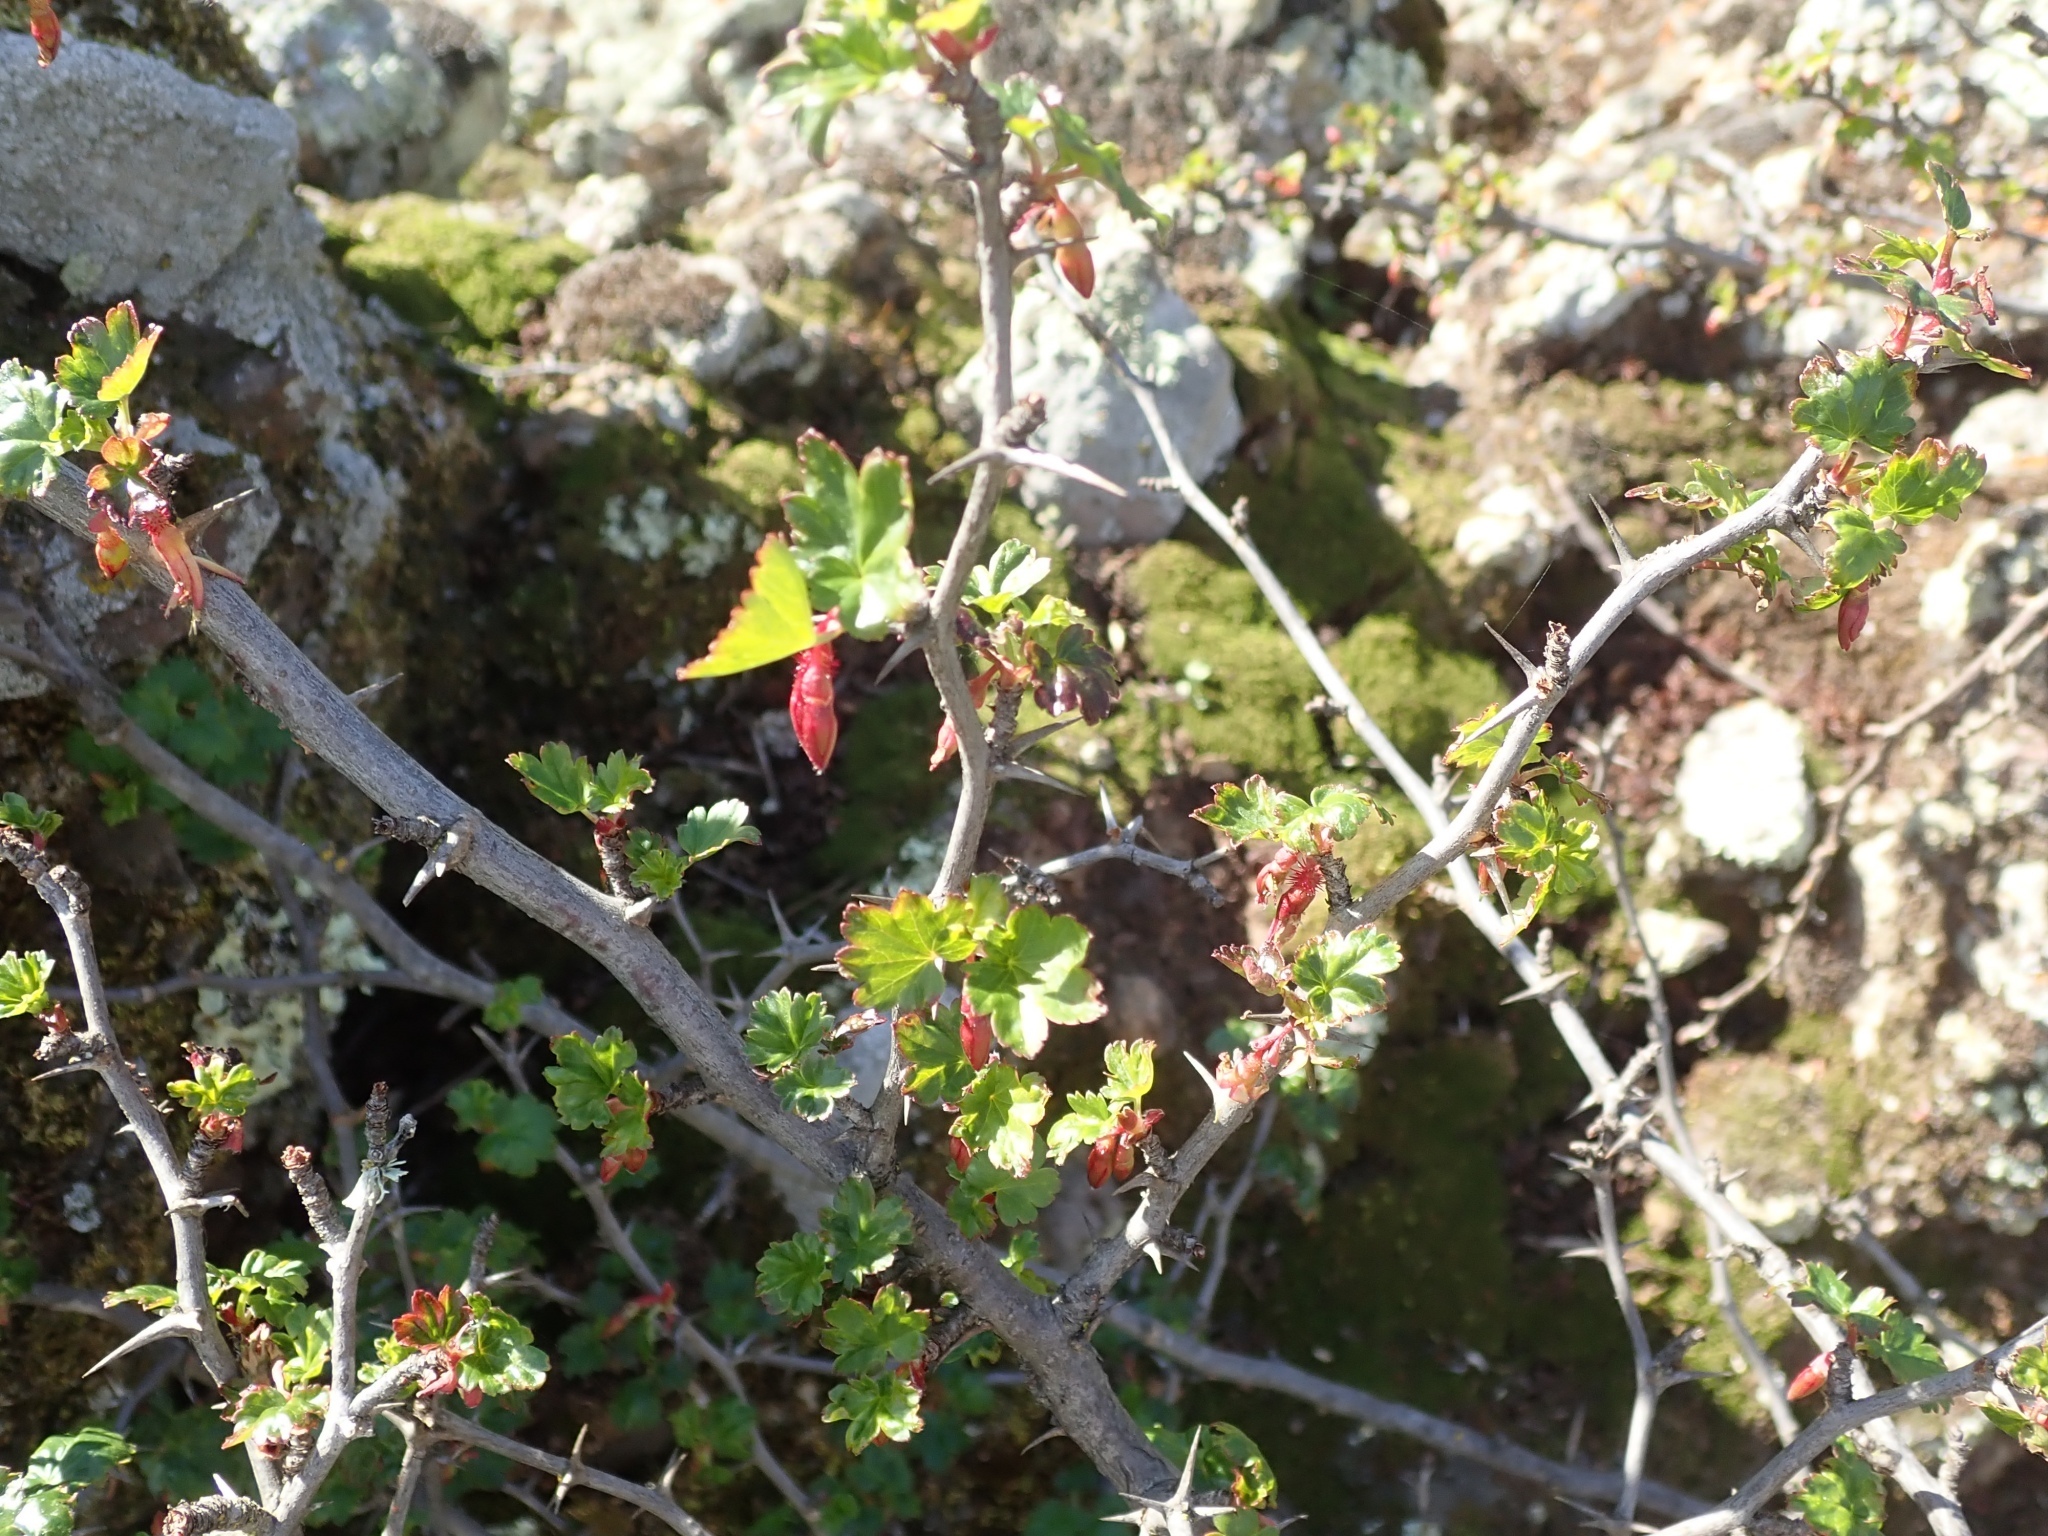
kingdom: Plantae
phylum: Tracheophyta
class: Magnoliopsida
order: Saxifragales
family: Grossulariaceae
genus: Ribes
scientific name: Ribes californicum
